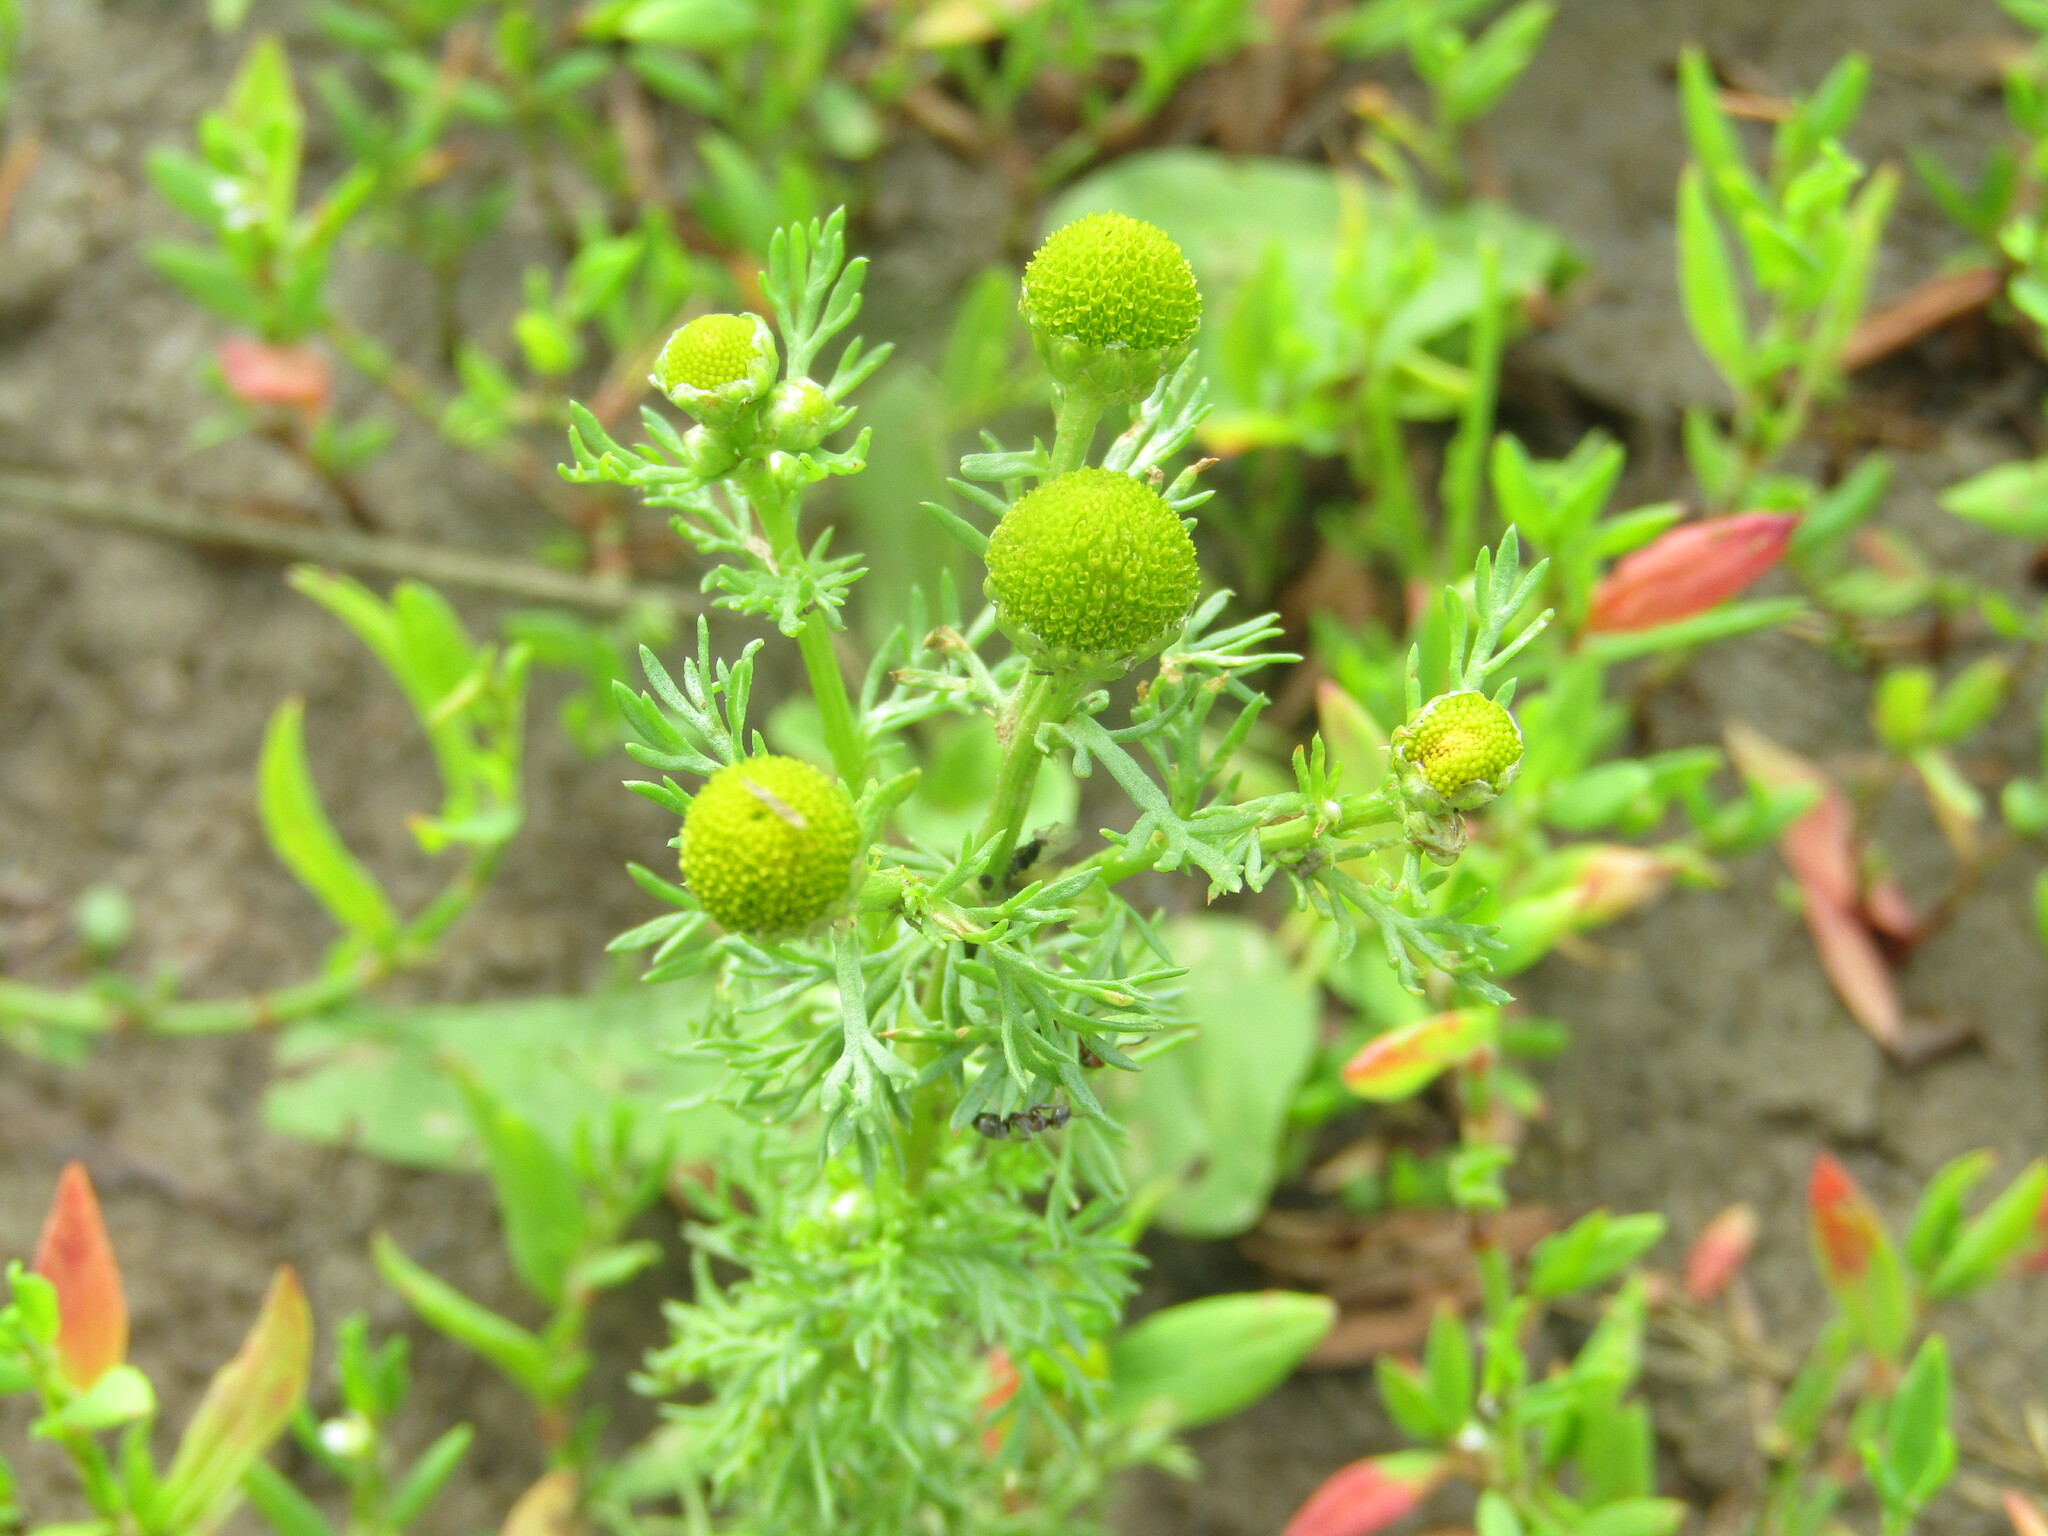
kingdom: Plantae
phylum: Tracheophyta
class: Magnoliopsida
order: Asterales
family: Asteraceae
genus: Matricaria
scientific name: Matricaria discoidea
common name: Disc mayweed
